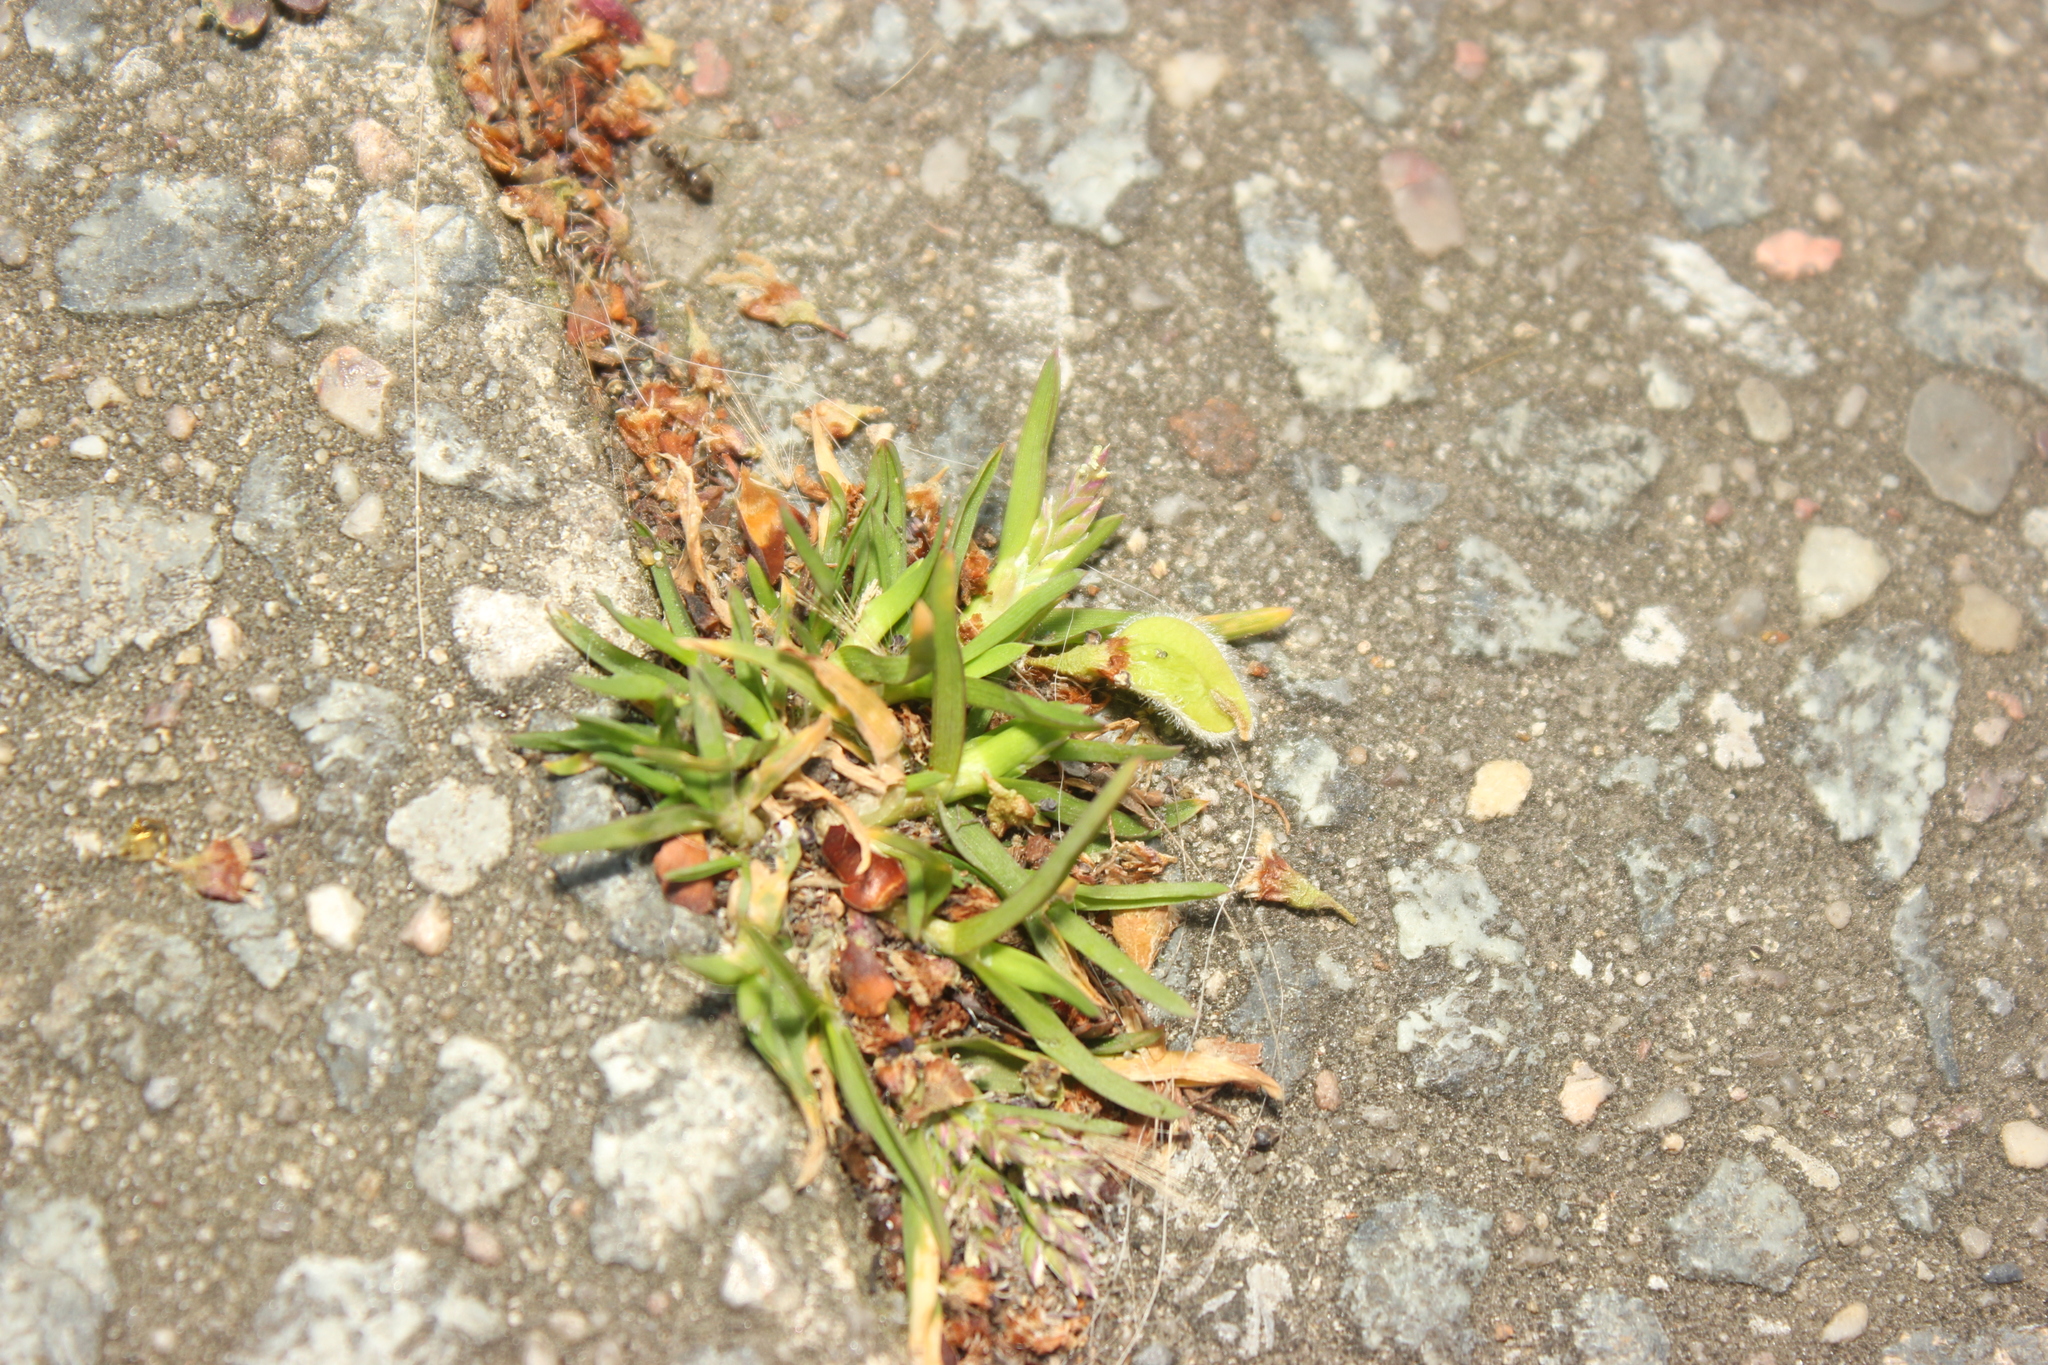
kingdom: Plantae
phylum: Tracheophyta
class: Liliopsida
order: Poales
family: Poaceae
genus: Poa
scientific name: Poa annua
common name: Annual bluegrass
